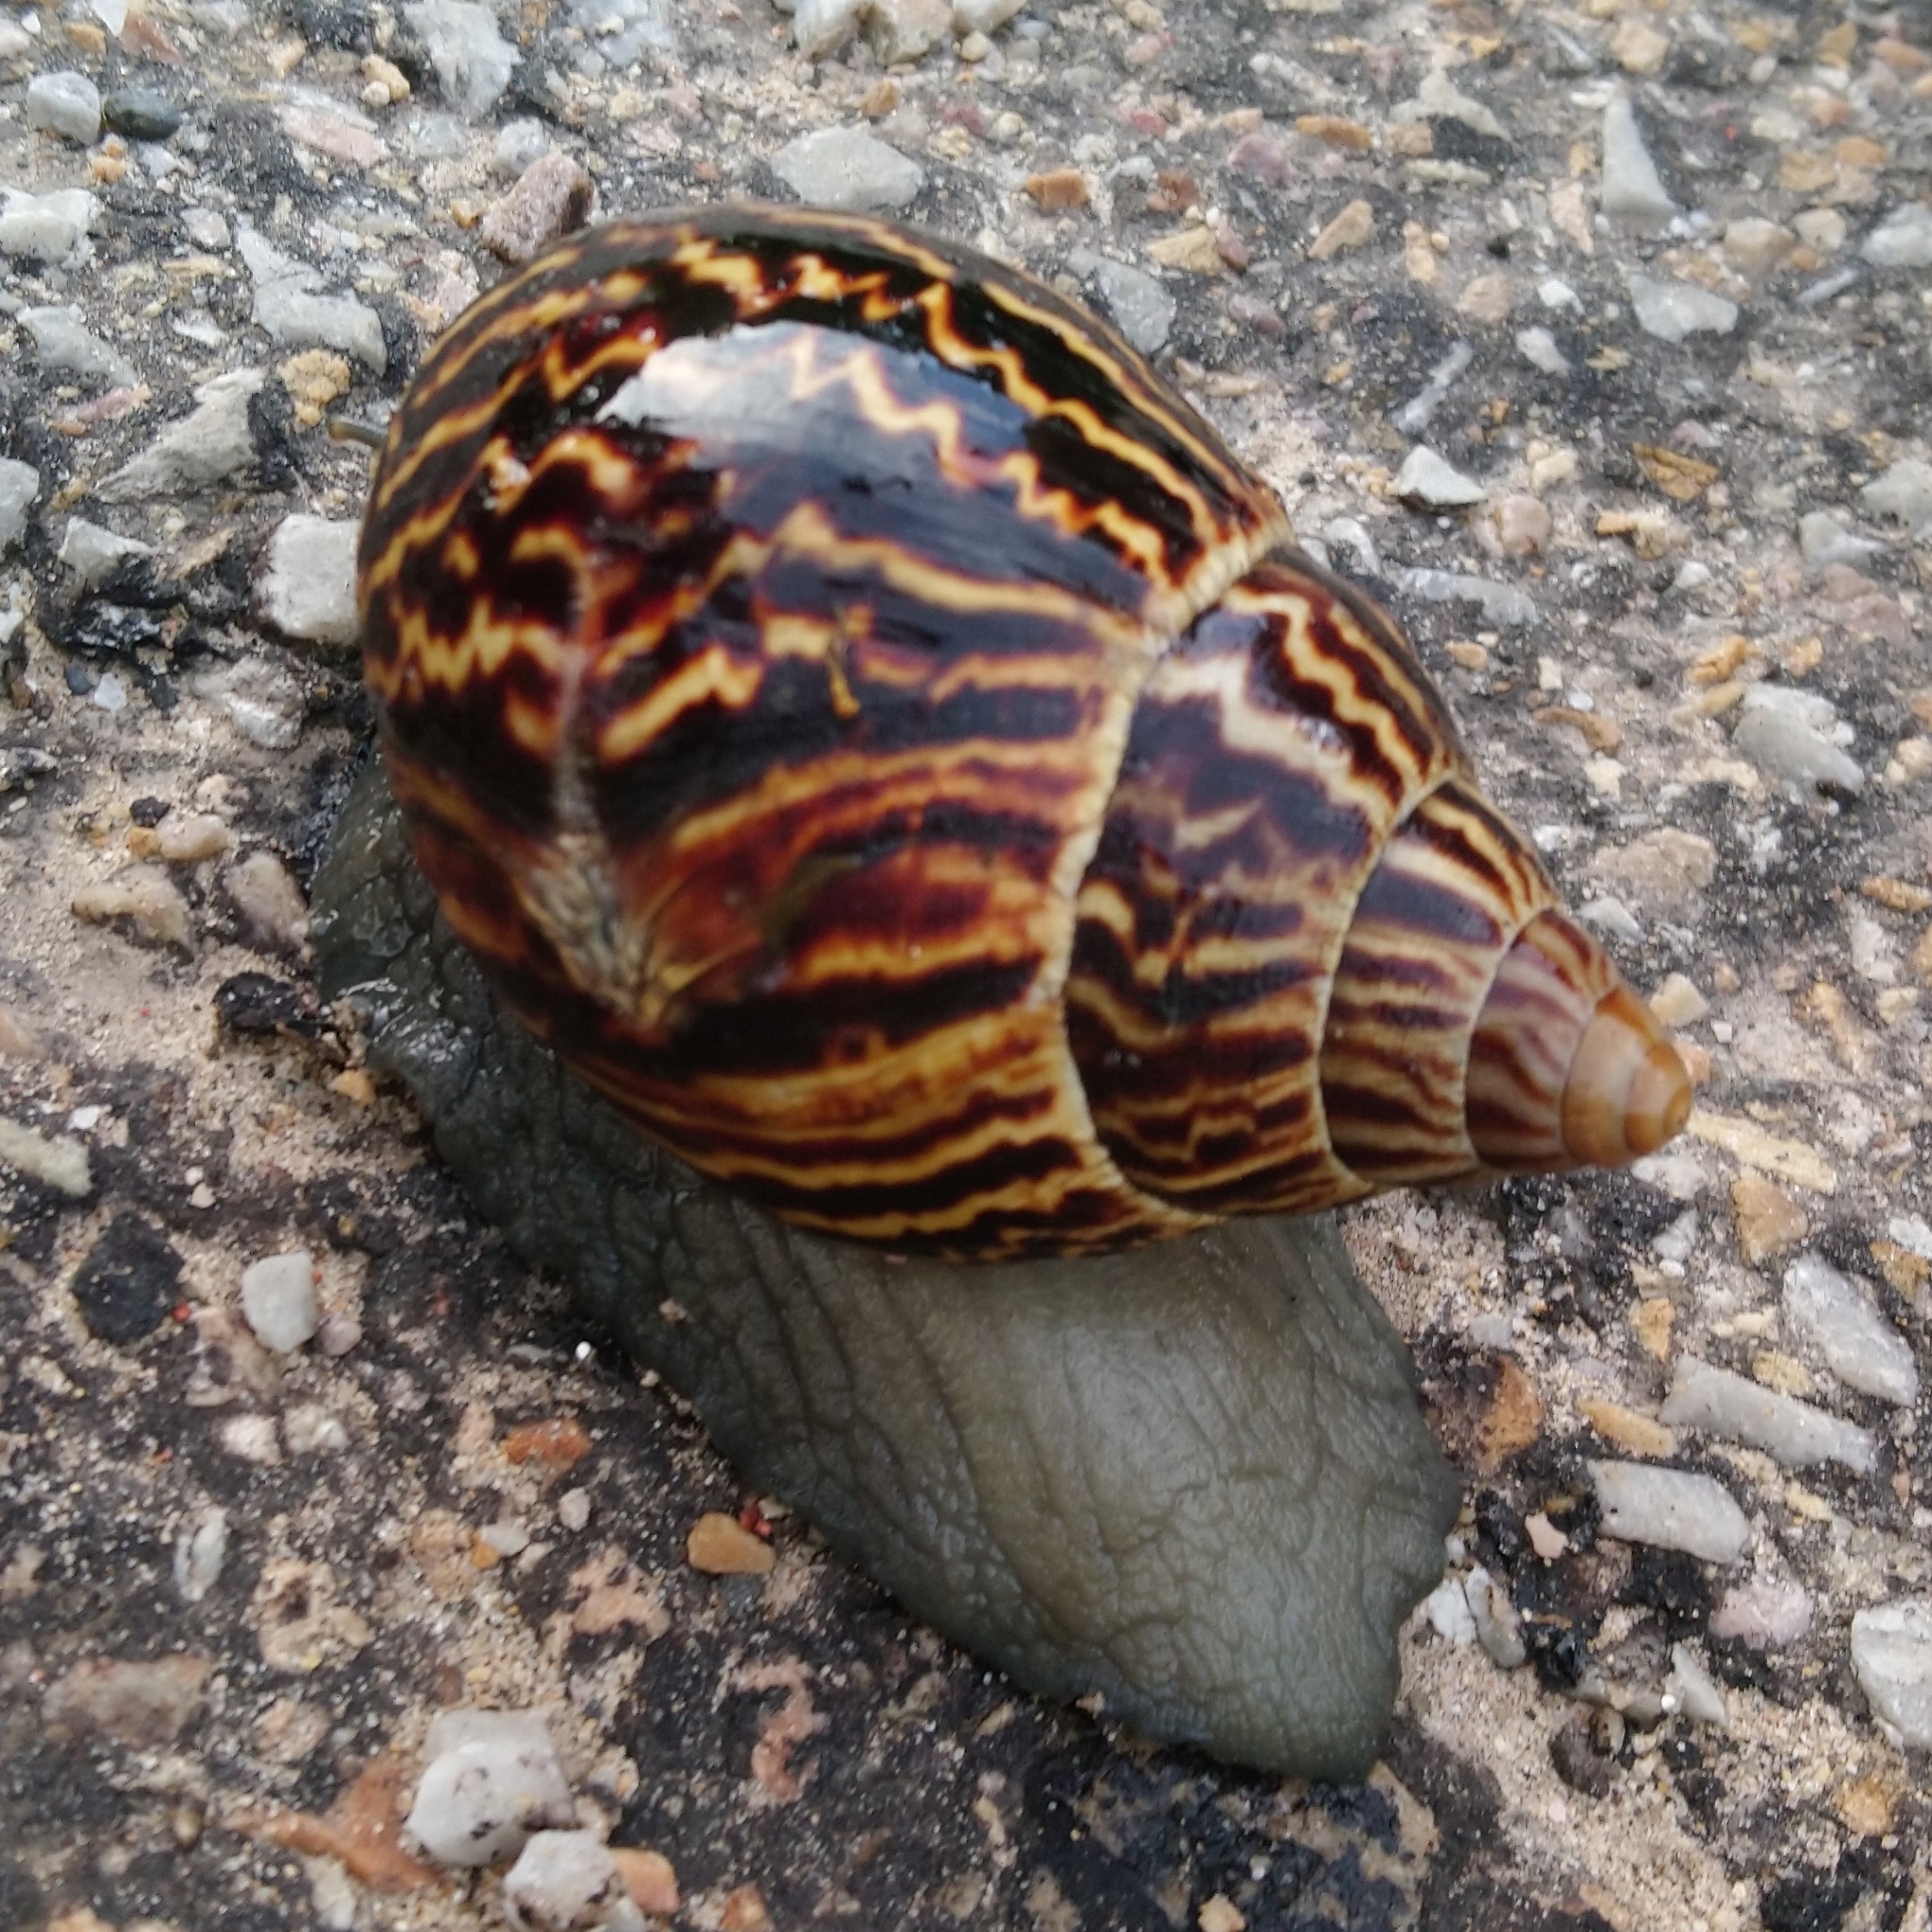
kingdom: Animalia
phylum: Mollusca
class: Gastropoda
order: Stylommatophora
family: Achatinidae
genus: Cochlitoma
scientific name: Cochlitoma zebra
